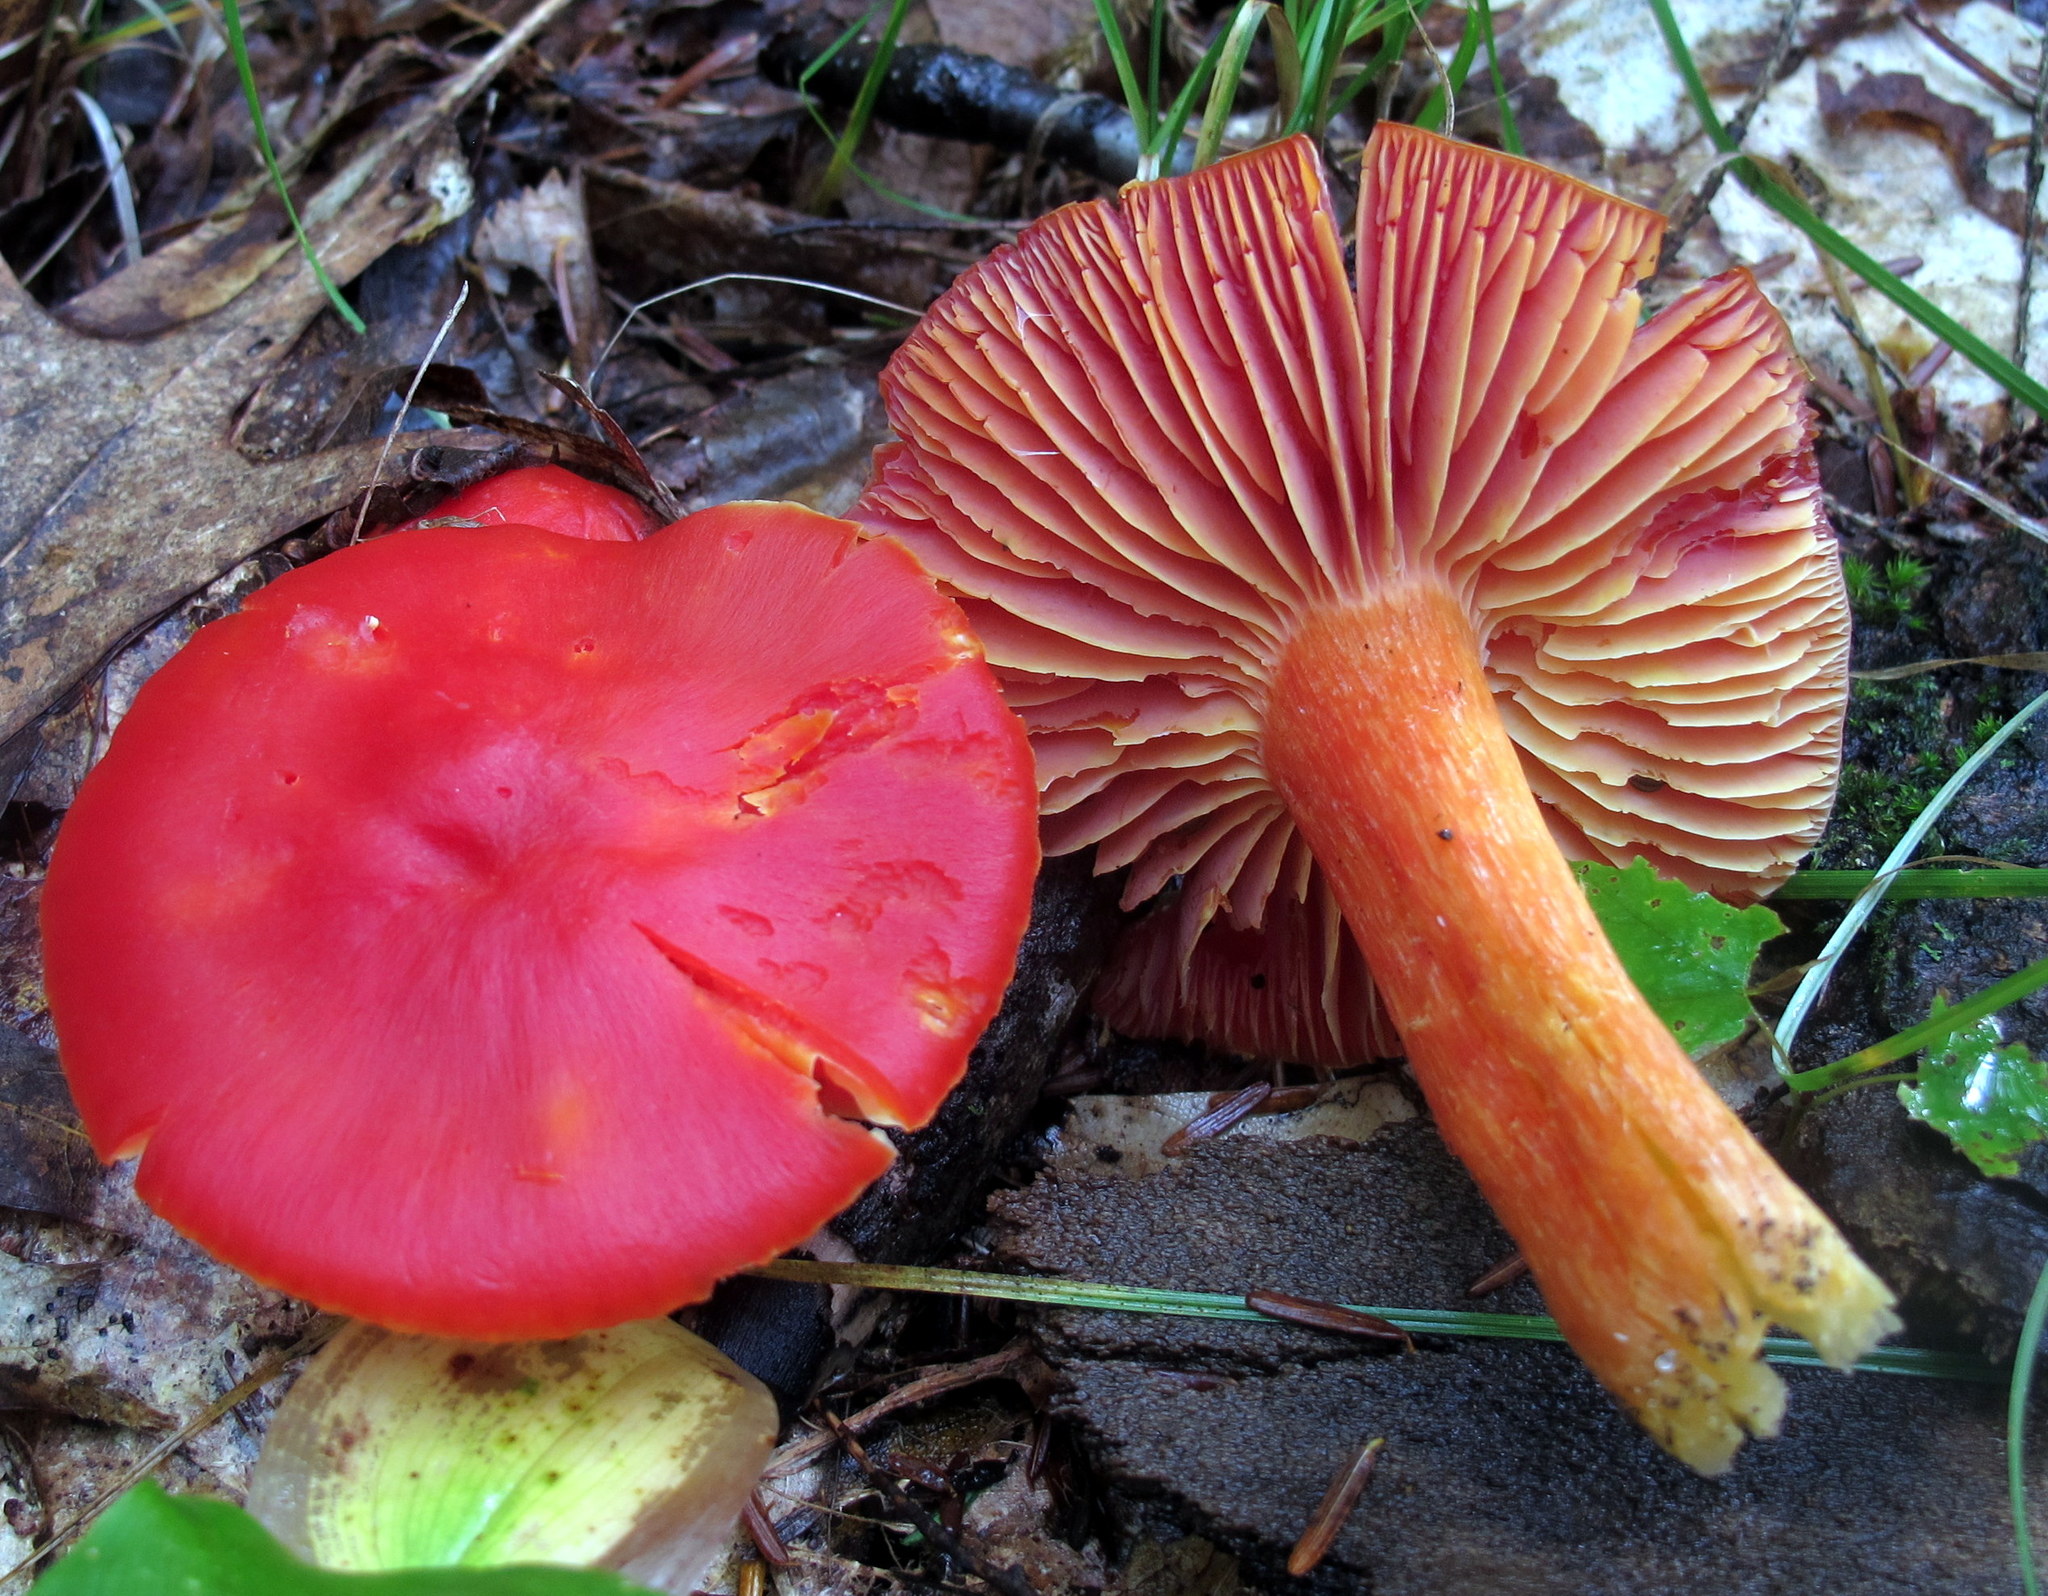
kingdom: Fungi
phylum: Basidiomycota
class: Agaricomycetes
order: Agaricales
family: Hygrophoraceae
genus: Hygrocybe
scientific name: Hygrocybe punicea
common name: Crimson waxcap
